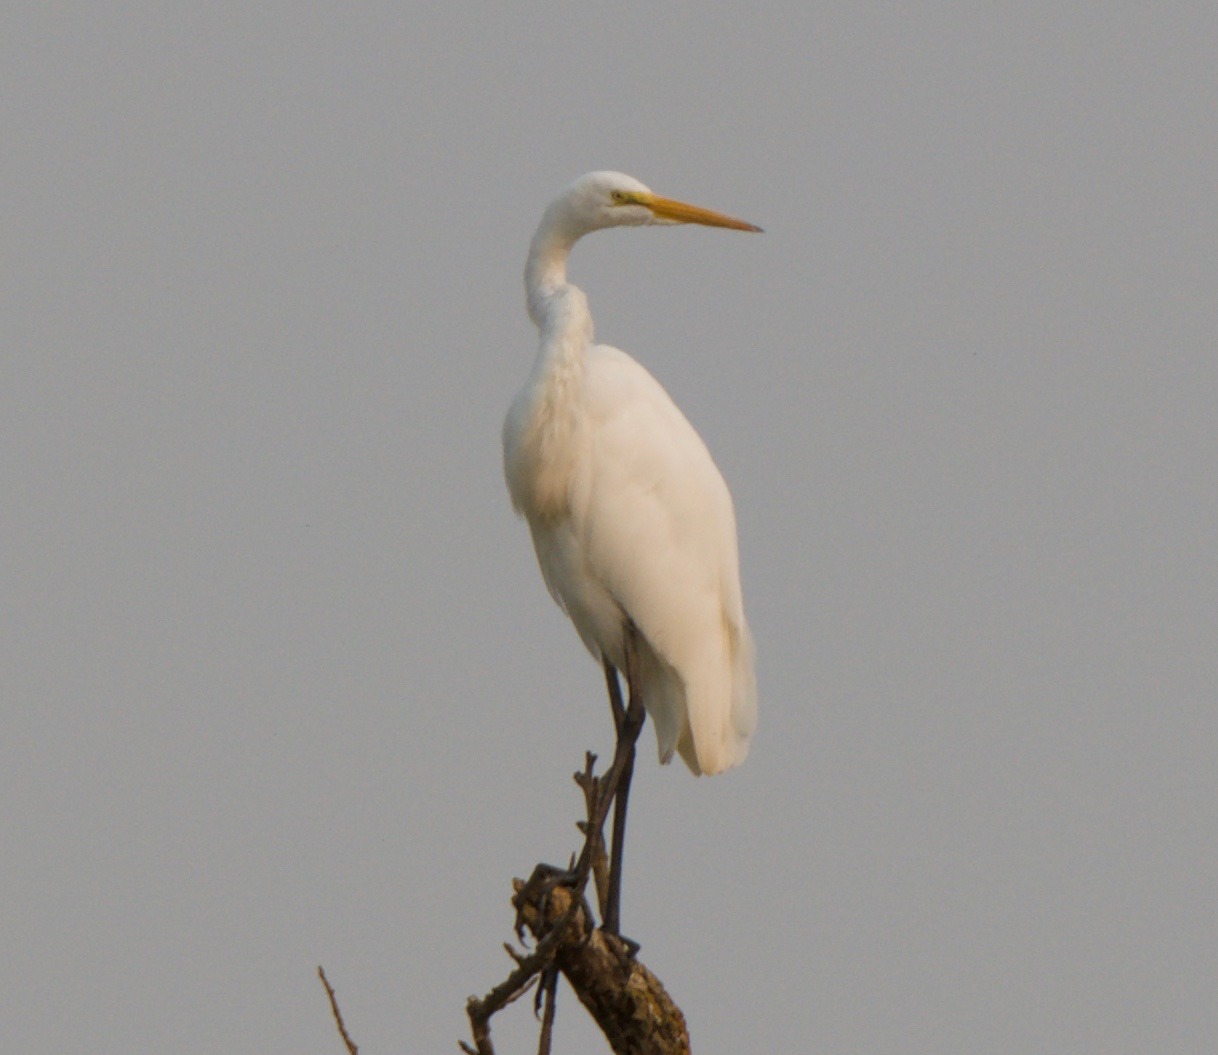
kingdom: Animalia
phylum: Chordata
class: Aves
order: Pelecaniformes
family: Ardeidae
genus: Ardea
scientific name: Ardea alba
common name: Great egret
